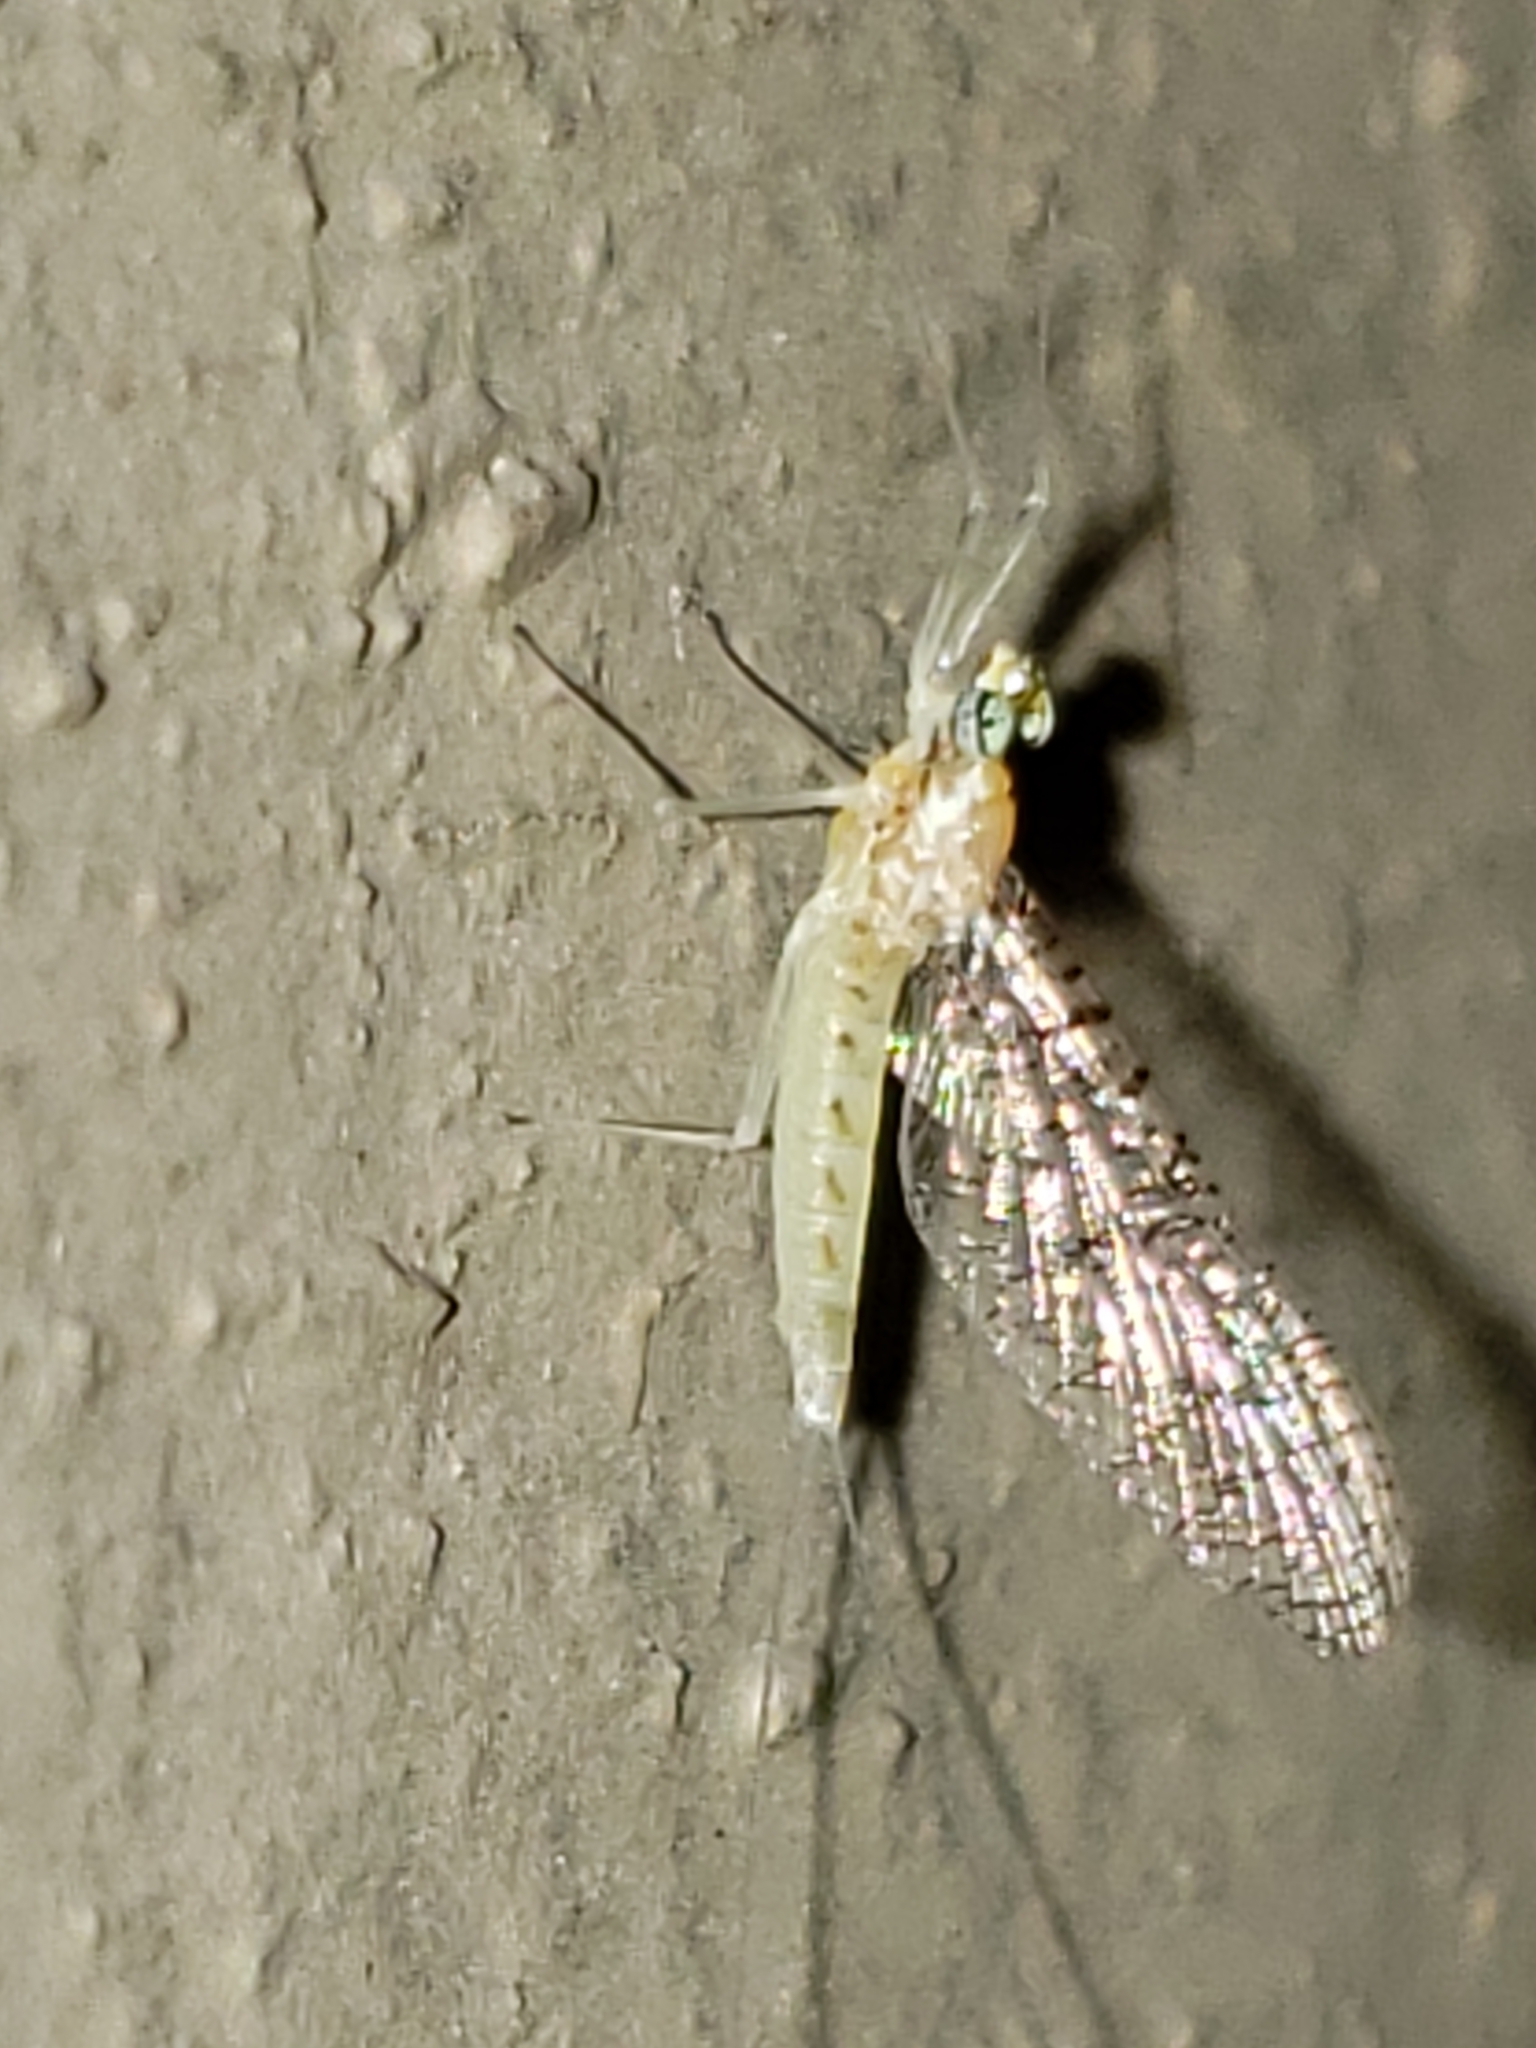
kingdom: Animalia
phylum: Arthropoda
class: Insecta
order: Ephemeroptera
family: Heptageniidae
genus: Leucrocuta
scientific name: Leucrocuta minerva
